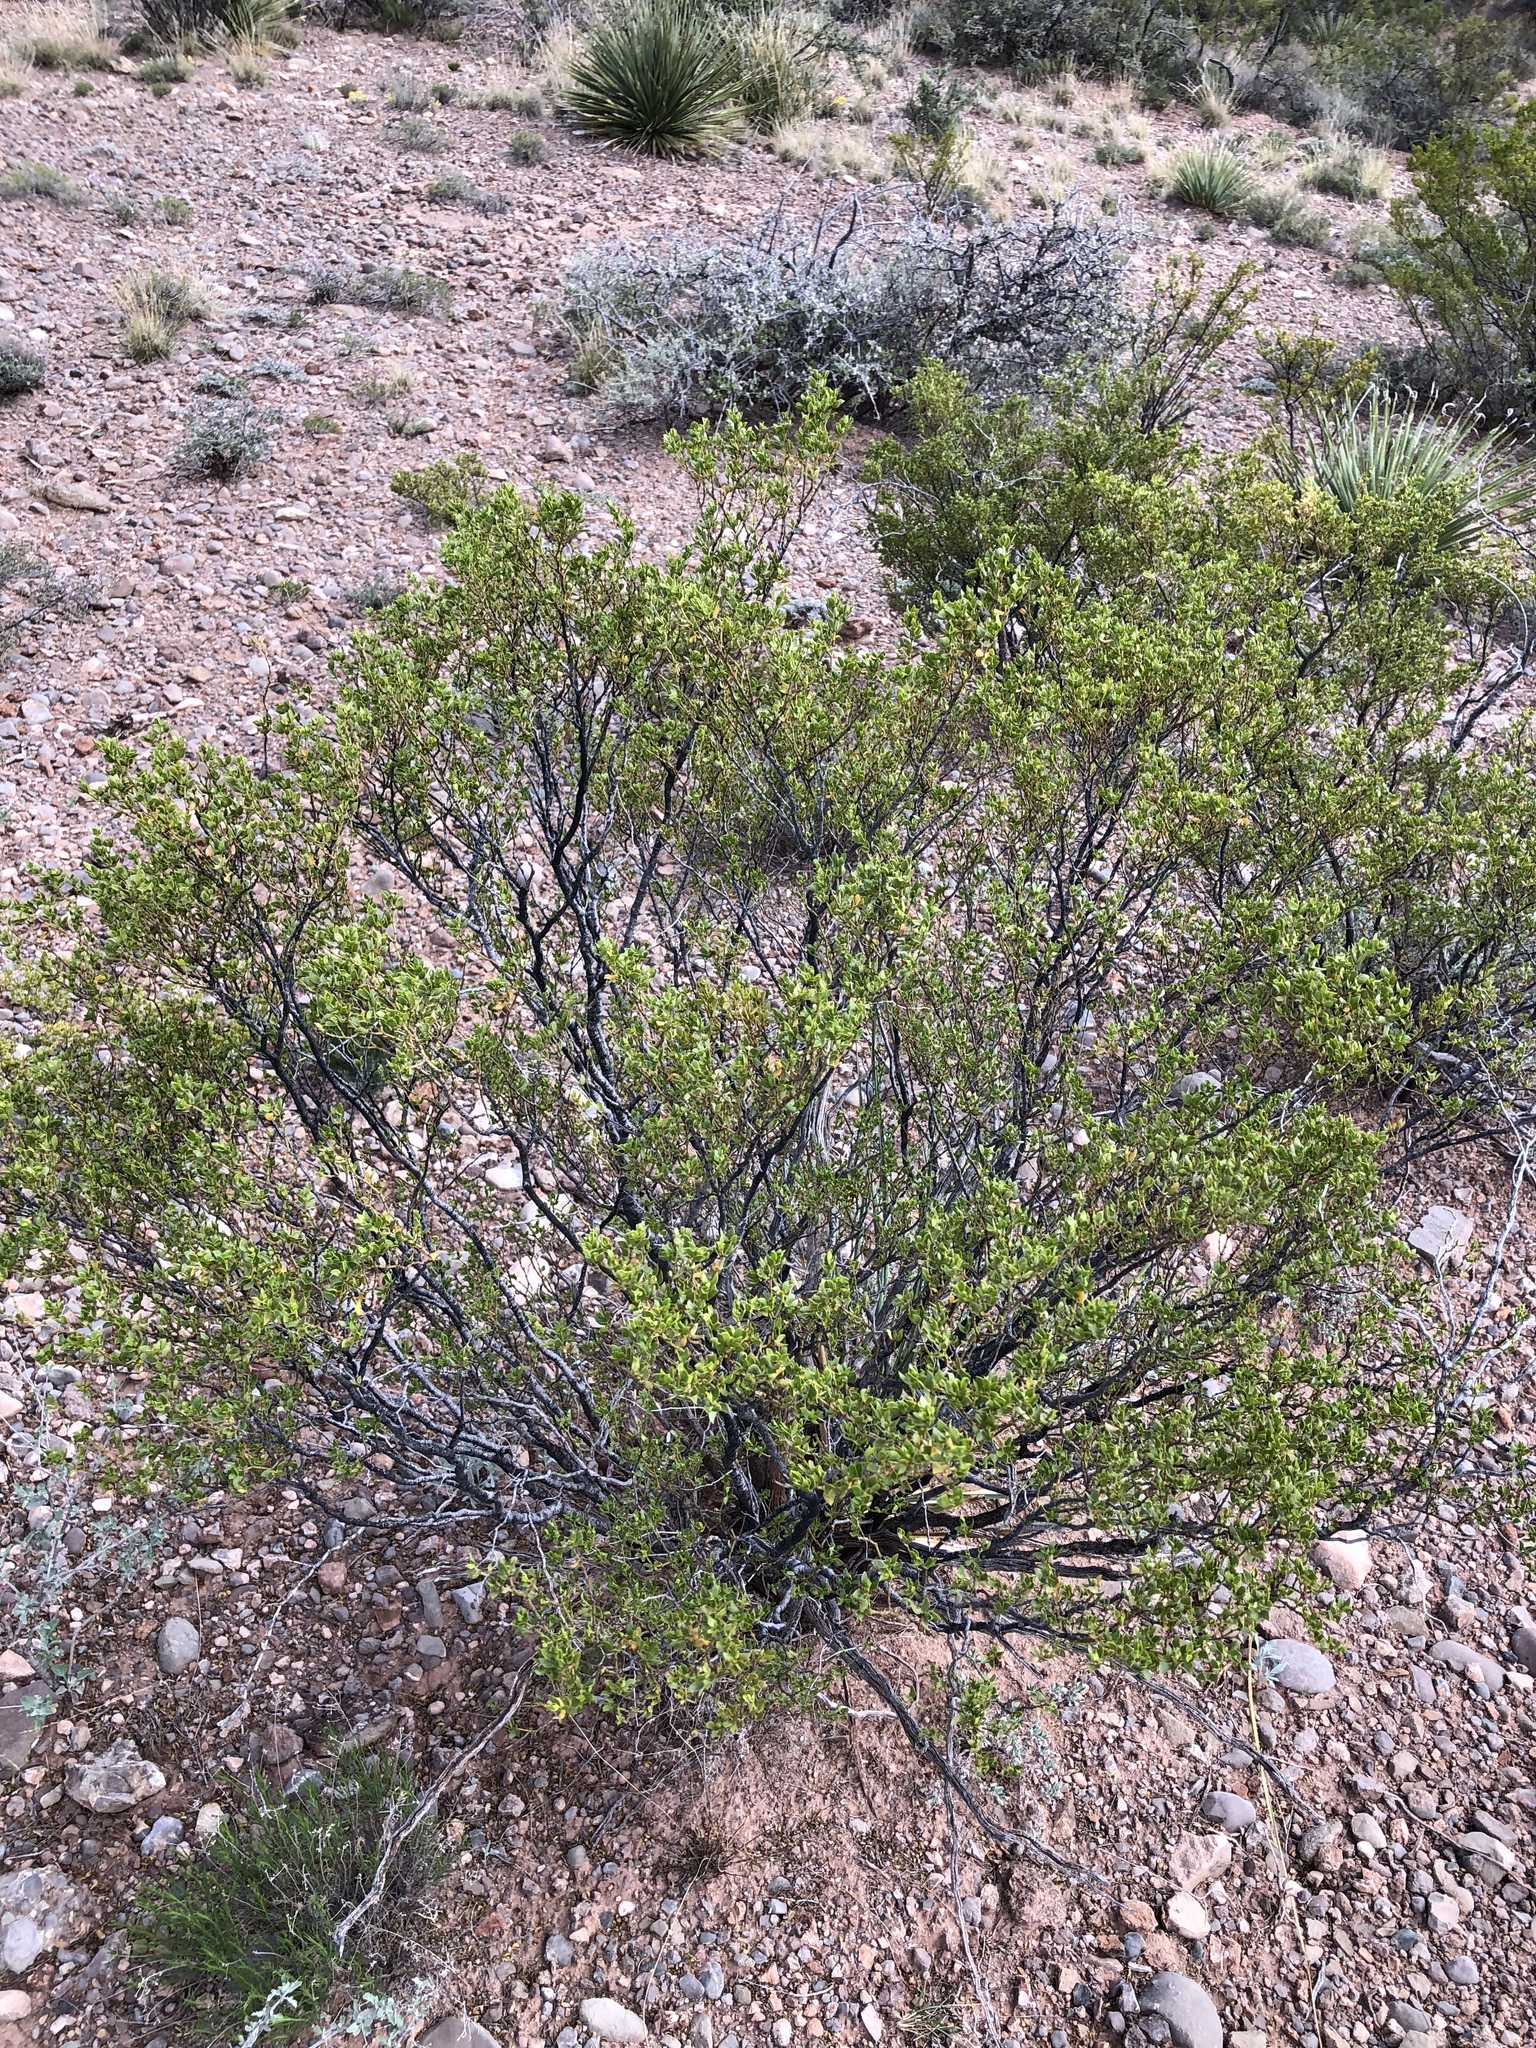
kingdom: Plantae
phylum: Tracheophyta
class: Magnoliopsida
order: Zygophyllales
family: Zygophyllaceae
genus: Larrea
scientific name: Larrea tridentata
